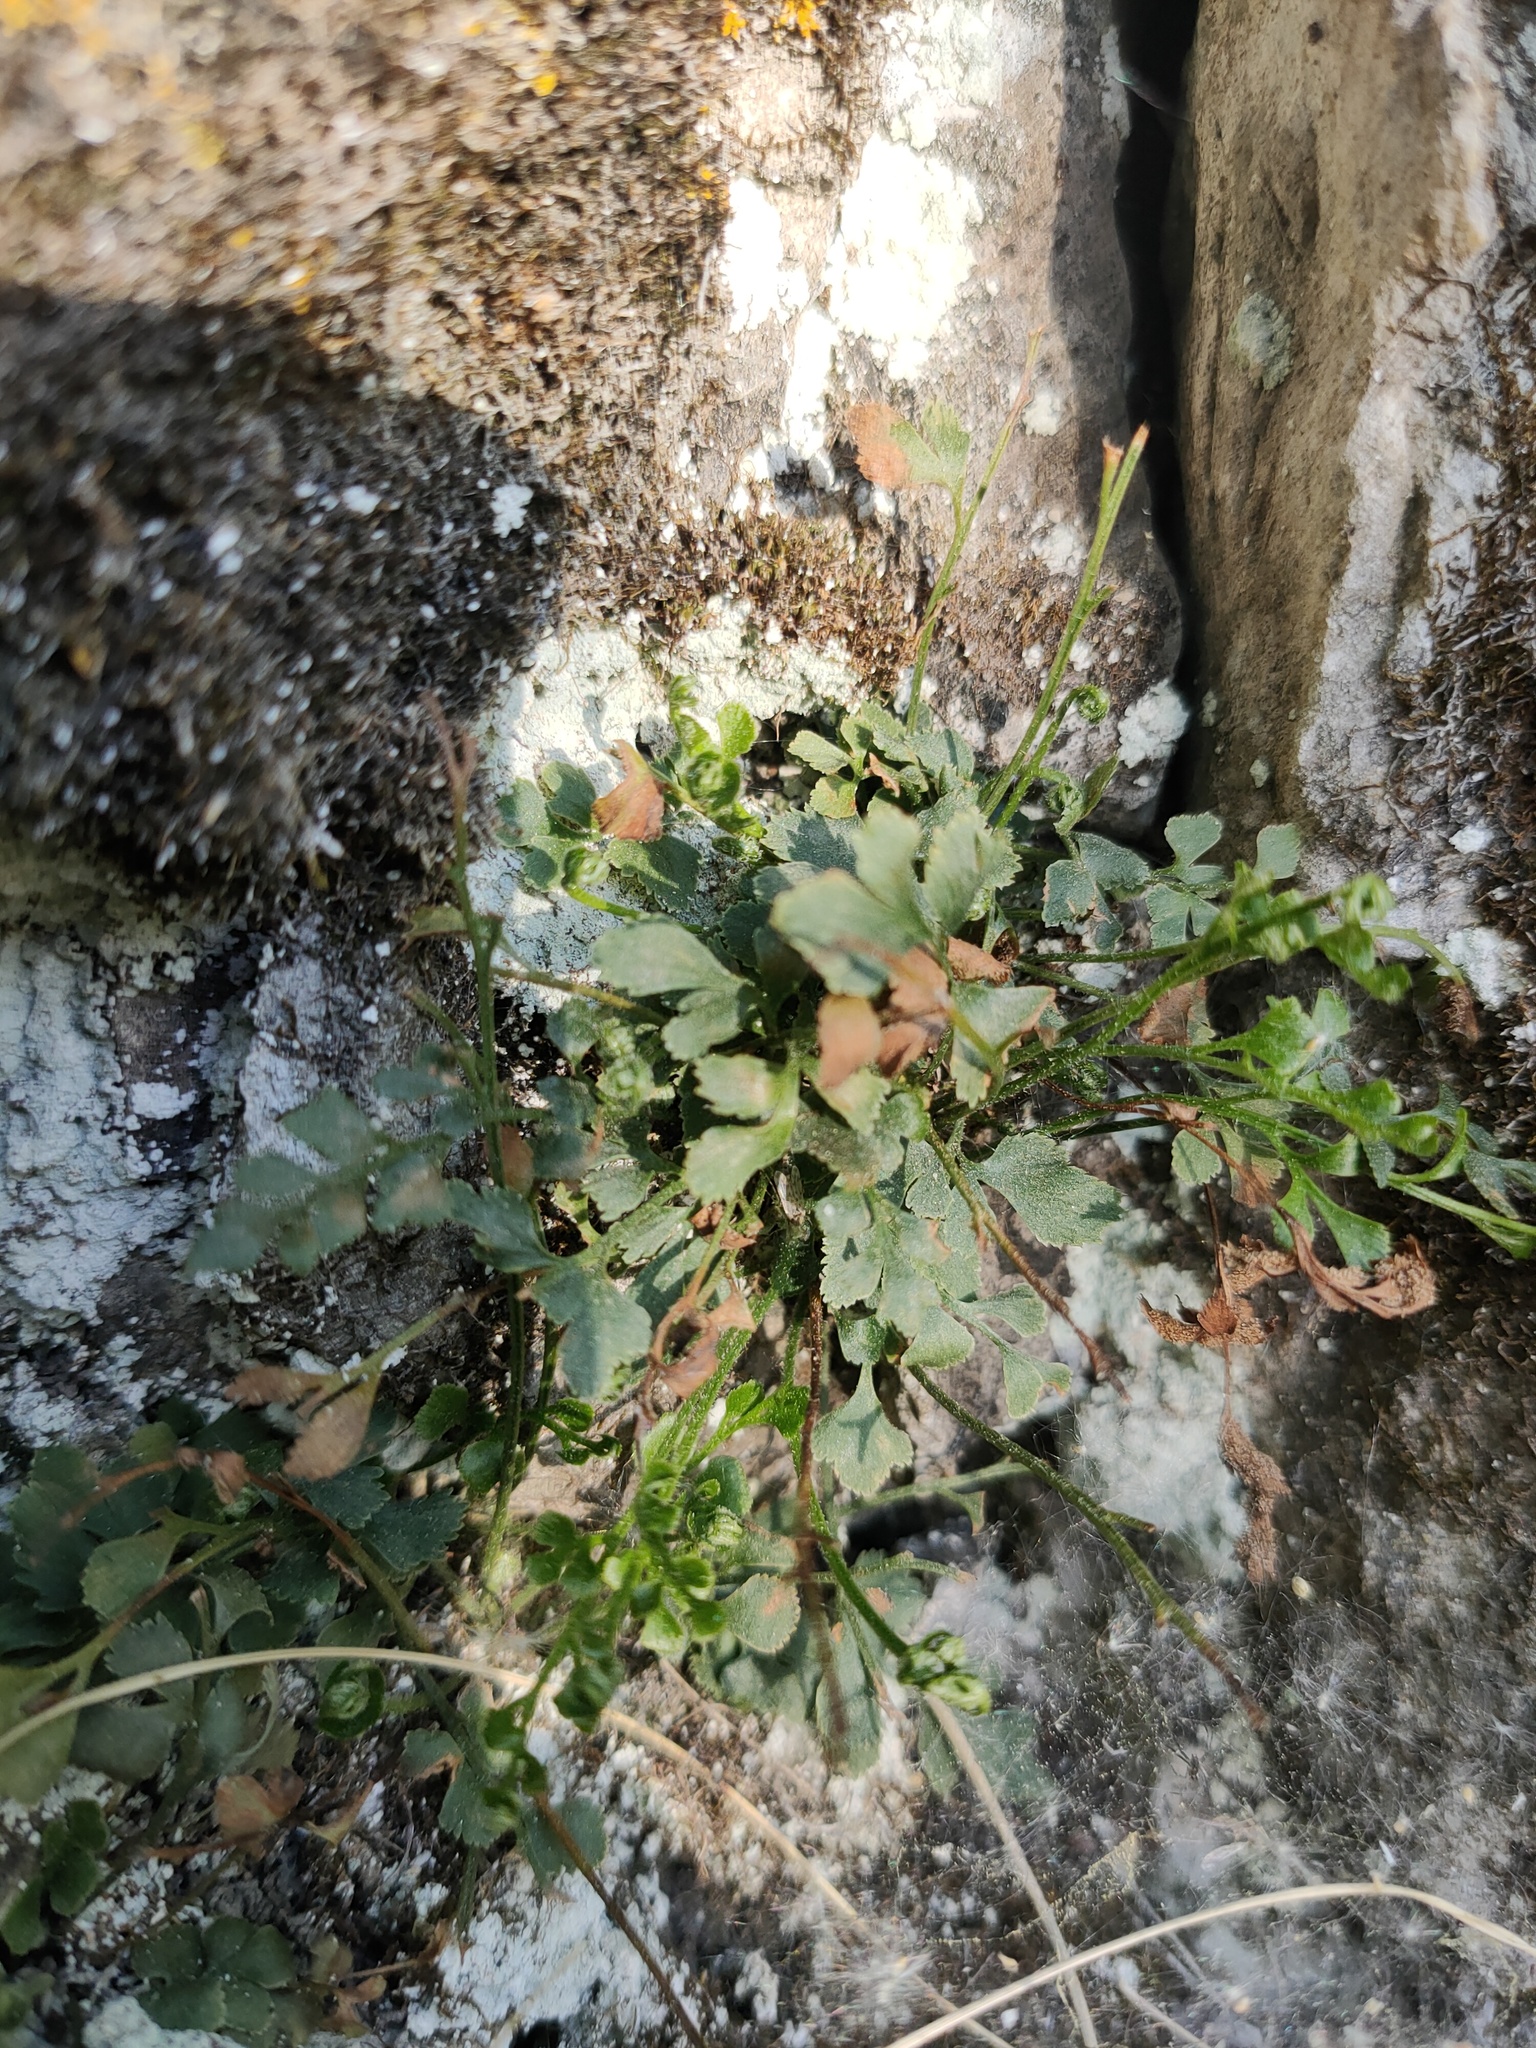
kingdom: Plantae
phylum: Tracheophyta
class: Polypodiopsida
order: Polypodiales
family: Aspleniaceae
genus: Asplenium
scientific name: Asplenium ruta-muraria
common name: Wall-rue
